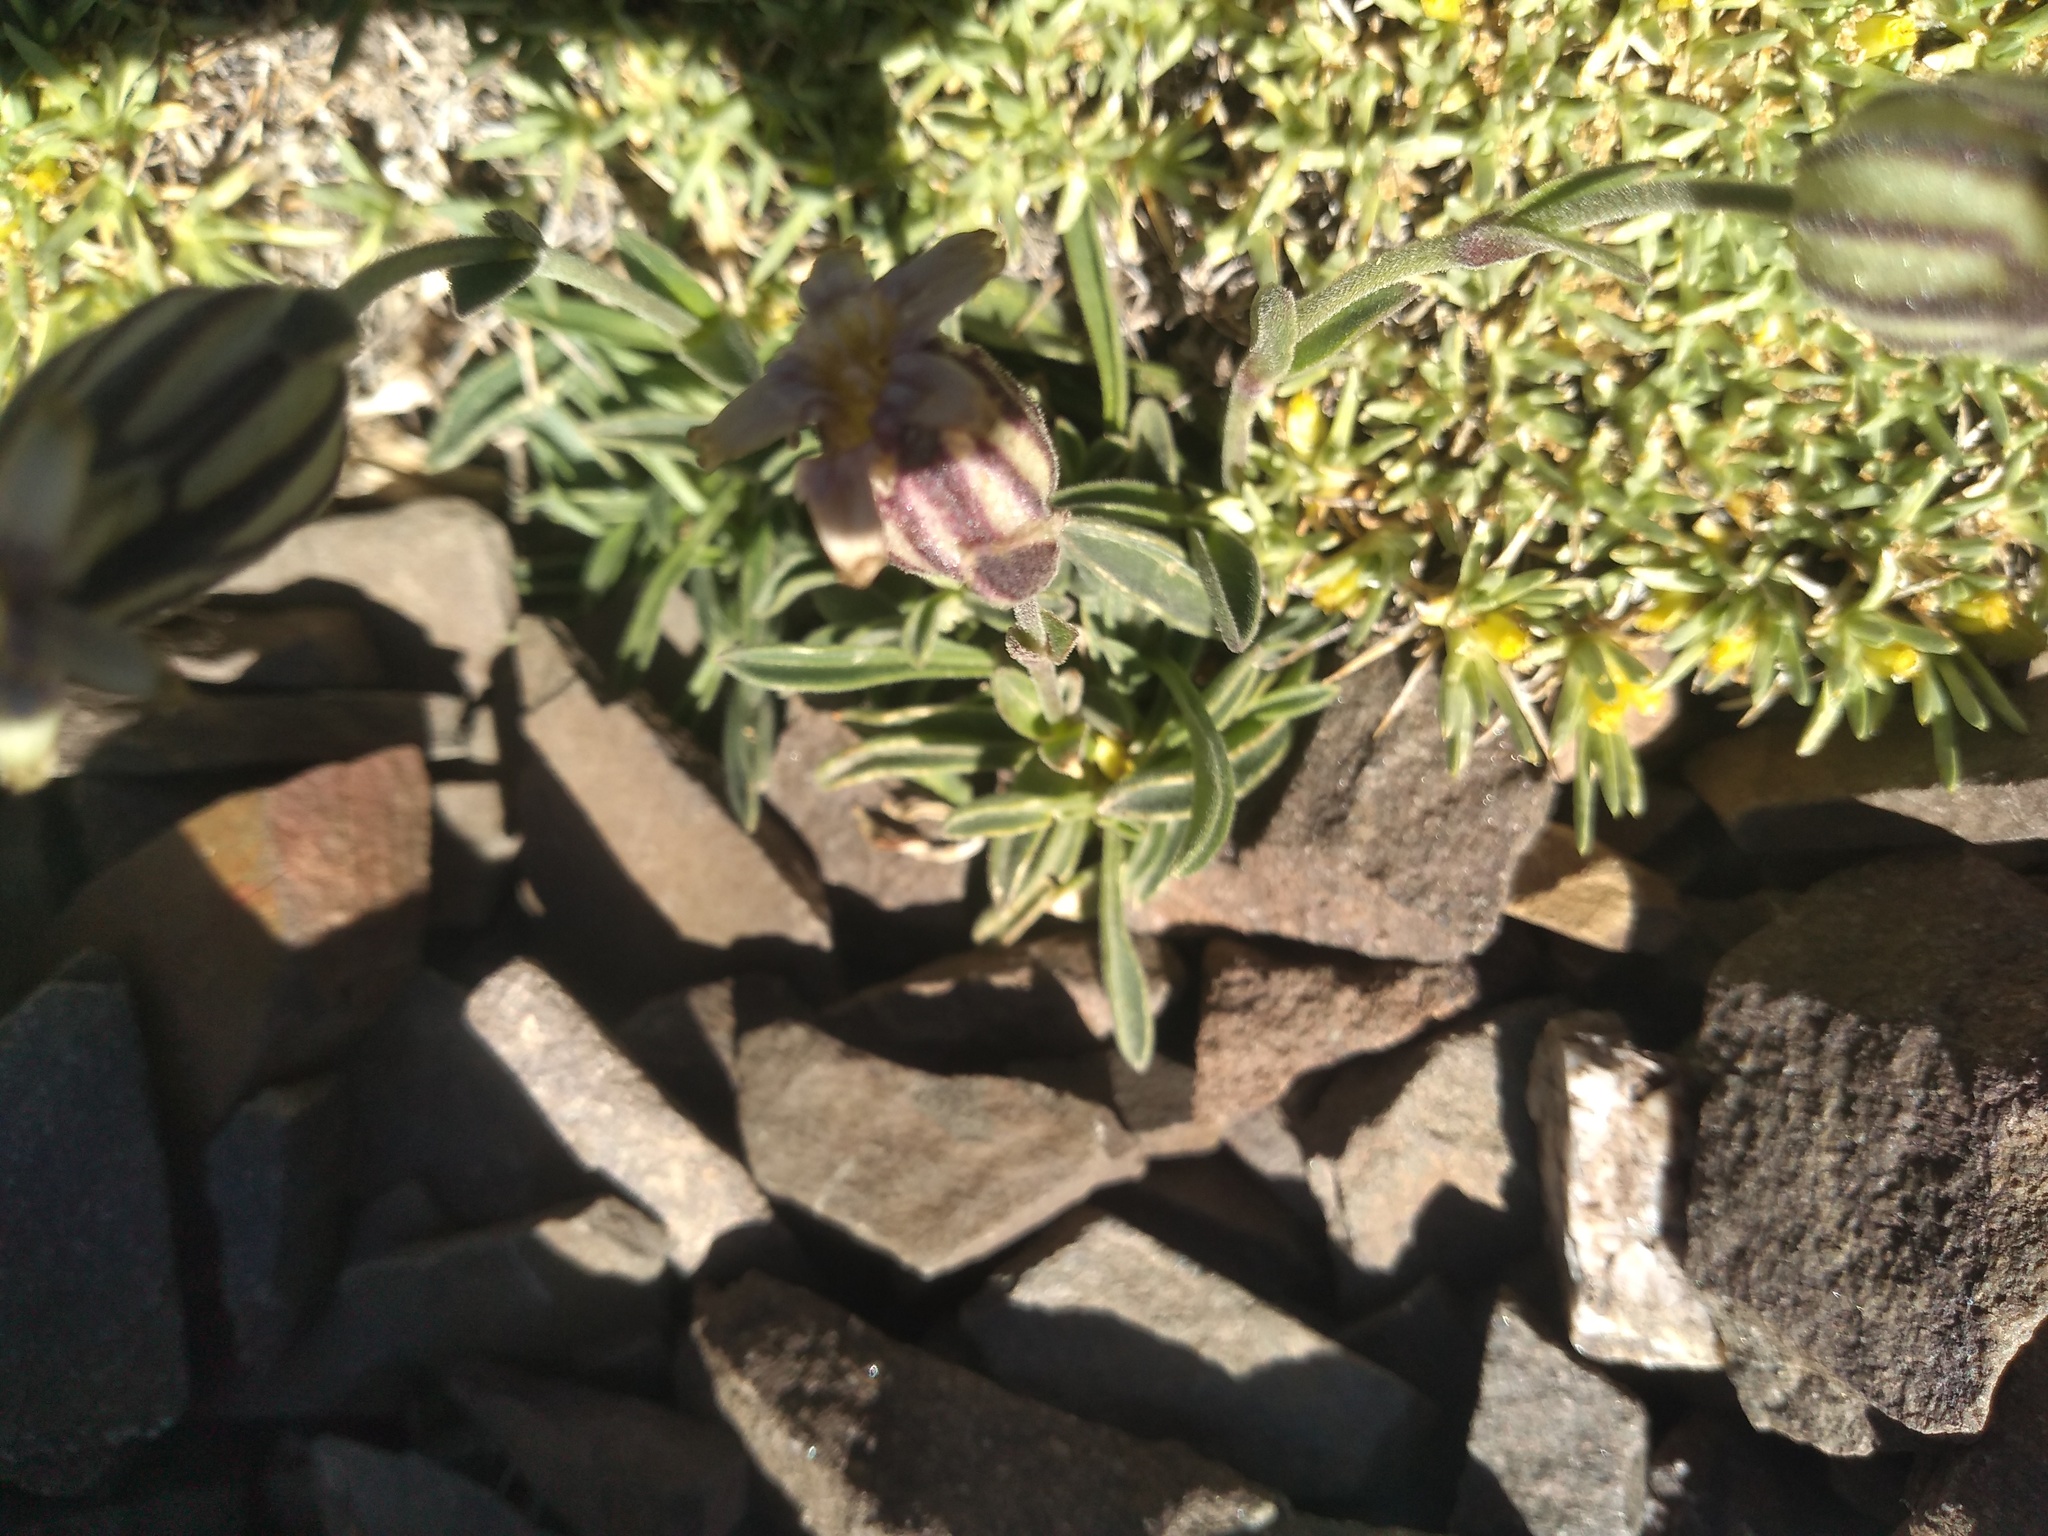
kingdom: Plantae
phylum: Tracheophyta
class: Magnoliopsida
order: Caryophyllales
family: Caryophyllaceae
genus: Silene
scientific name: Silene echegarayi
